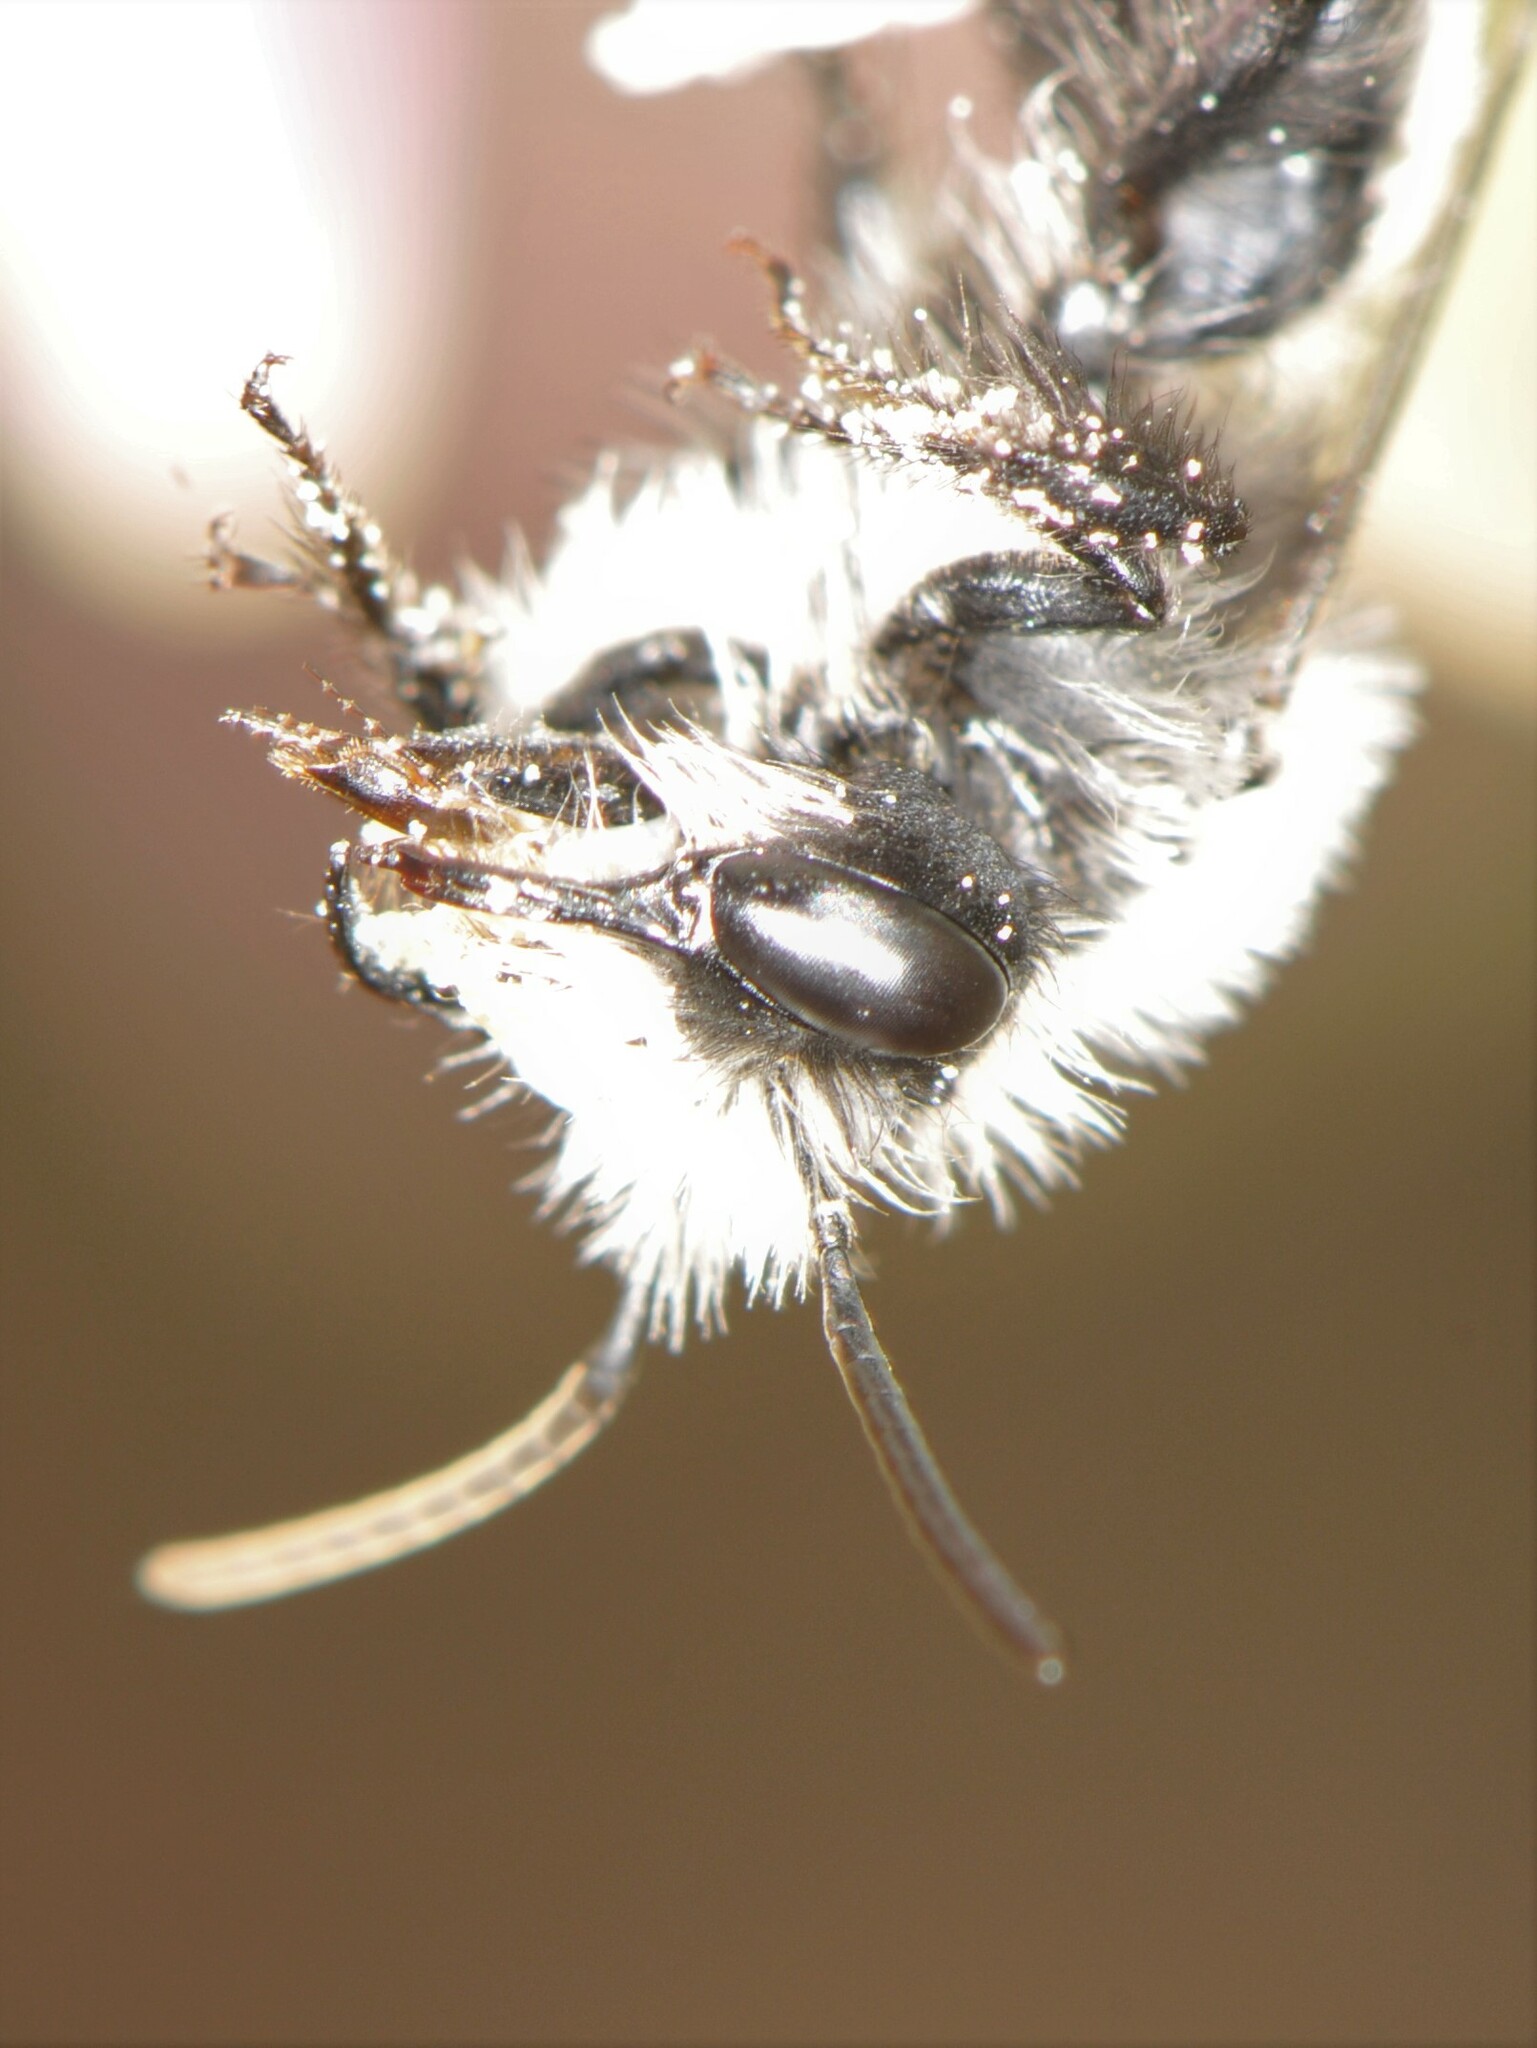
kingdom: Animalia
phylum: Arthropoda
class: Insecta
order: Hymenoptera
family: Andrenidae
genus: Andrena
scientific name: Andrena
